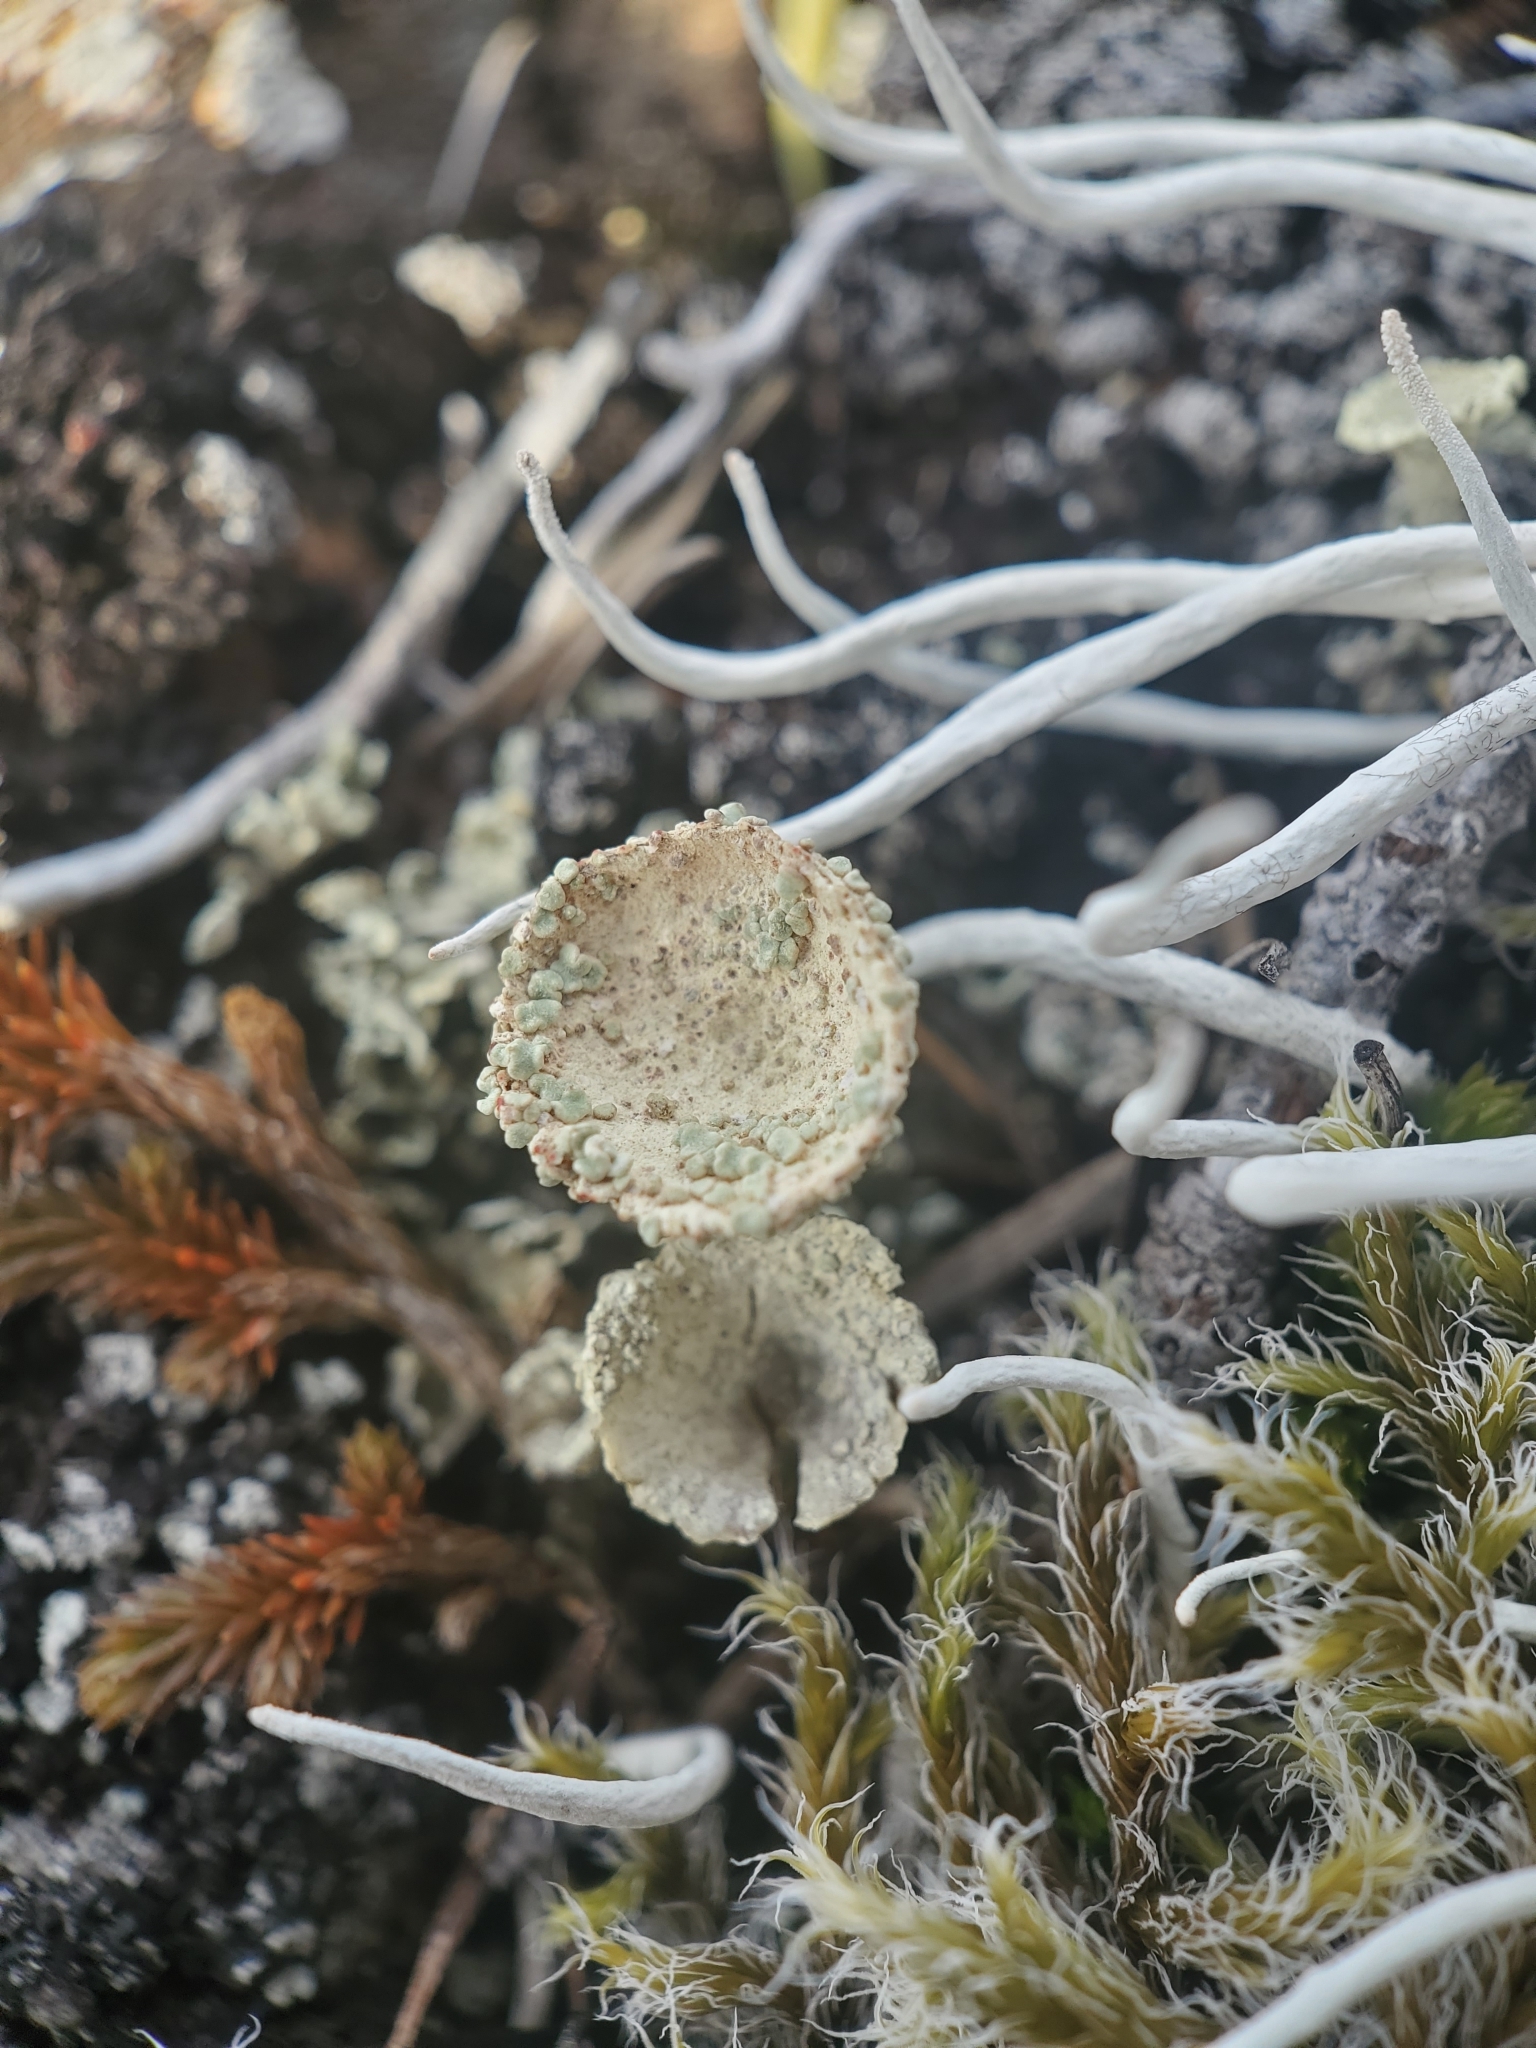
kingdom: Fungi
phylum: Ascomycota
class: Lecanoromycetes
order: Lecanorales
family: Cladoniaceae
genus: Cladonia
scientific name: Cladonia fimbriata
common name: Powdered trumpet lichen
